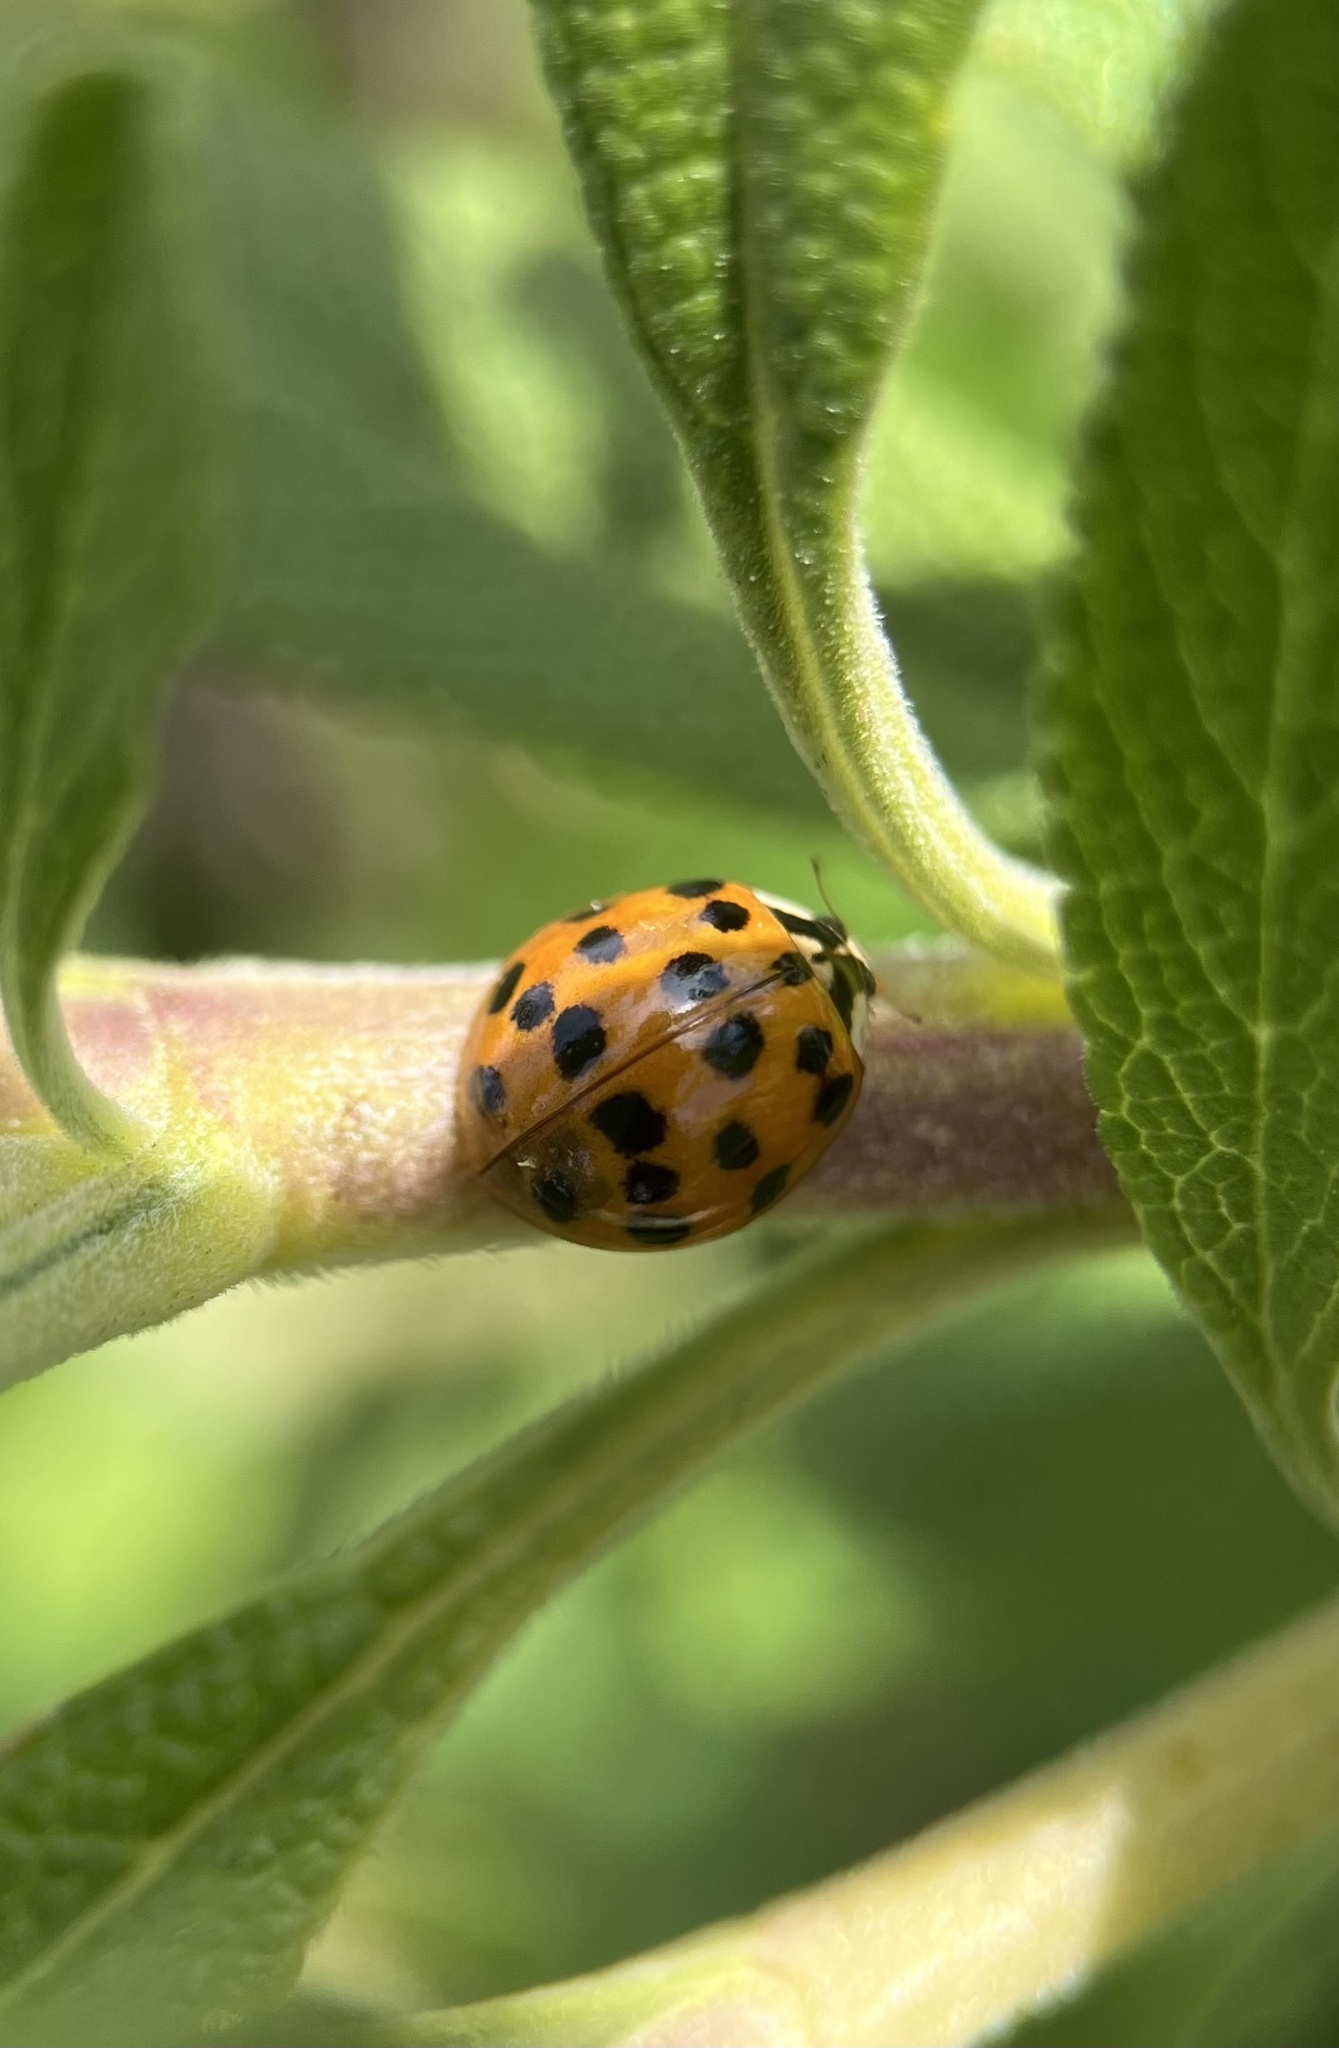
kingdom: Animalia
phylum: Arthropoda
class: Insecta
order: Coleoptera
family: Coccinellidae
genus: Harmonia
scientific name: Harmonia axyridis
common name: Harlequin ladybird
